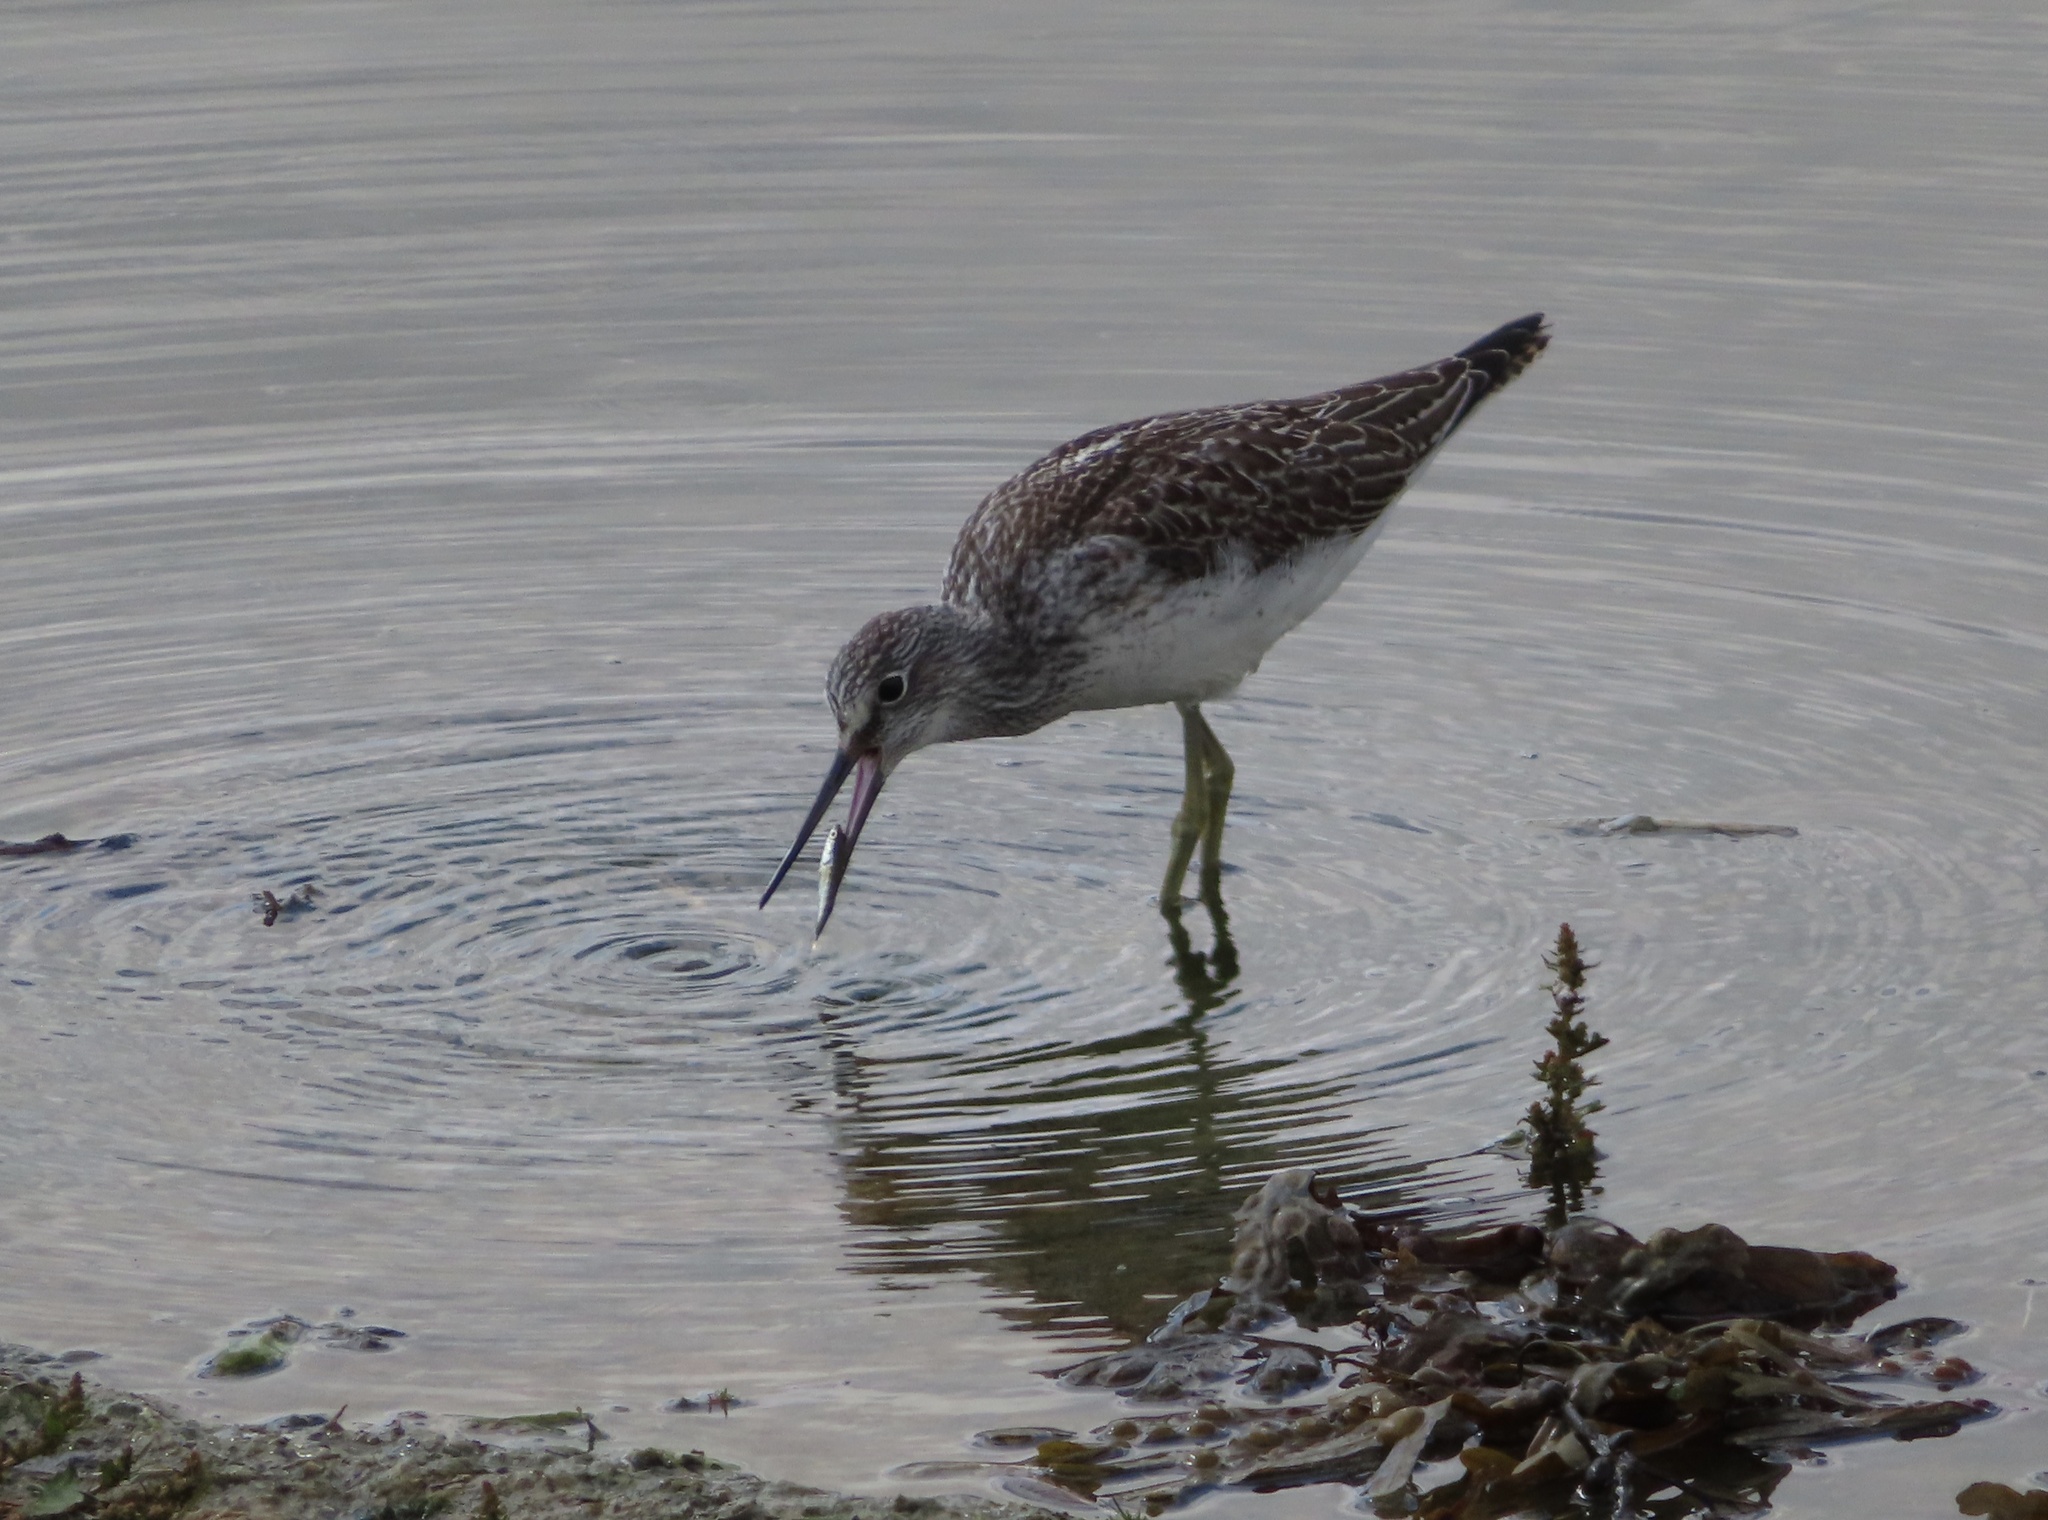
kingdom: Animalia
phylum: Chordata
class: Aves
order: Charadriiformes
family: Scolopacidae
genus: Tringa
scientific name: Tringa nebularia
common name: Common greenshank
